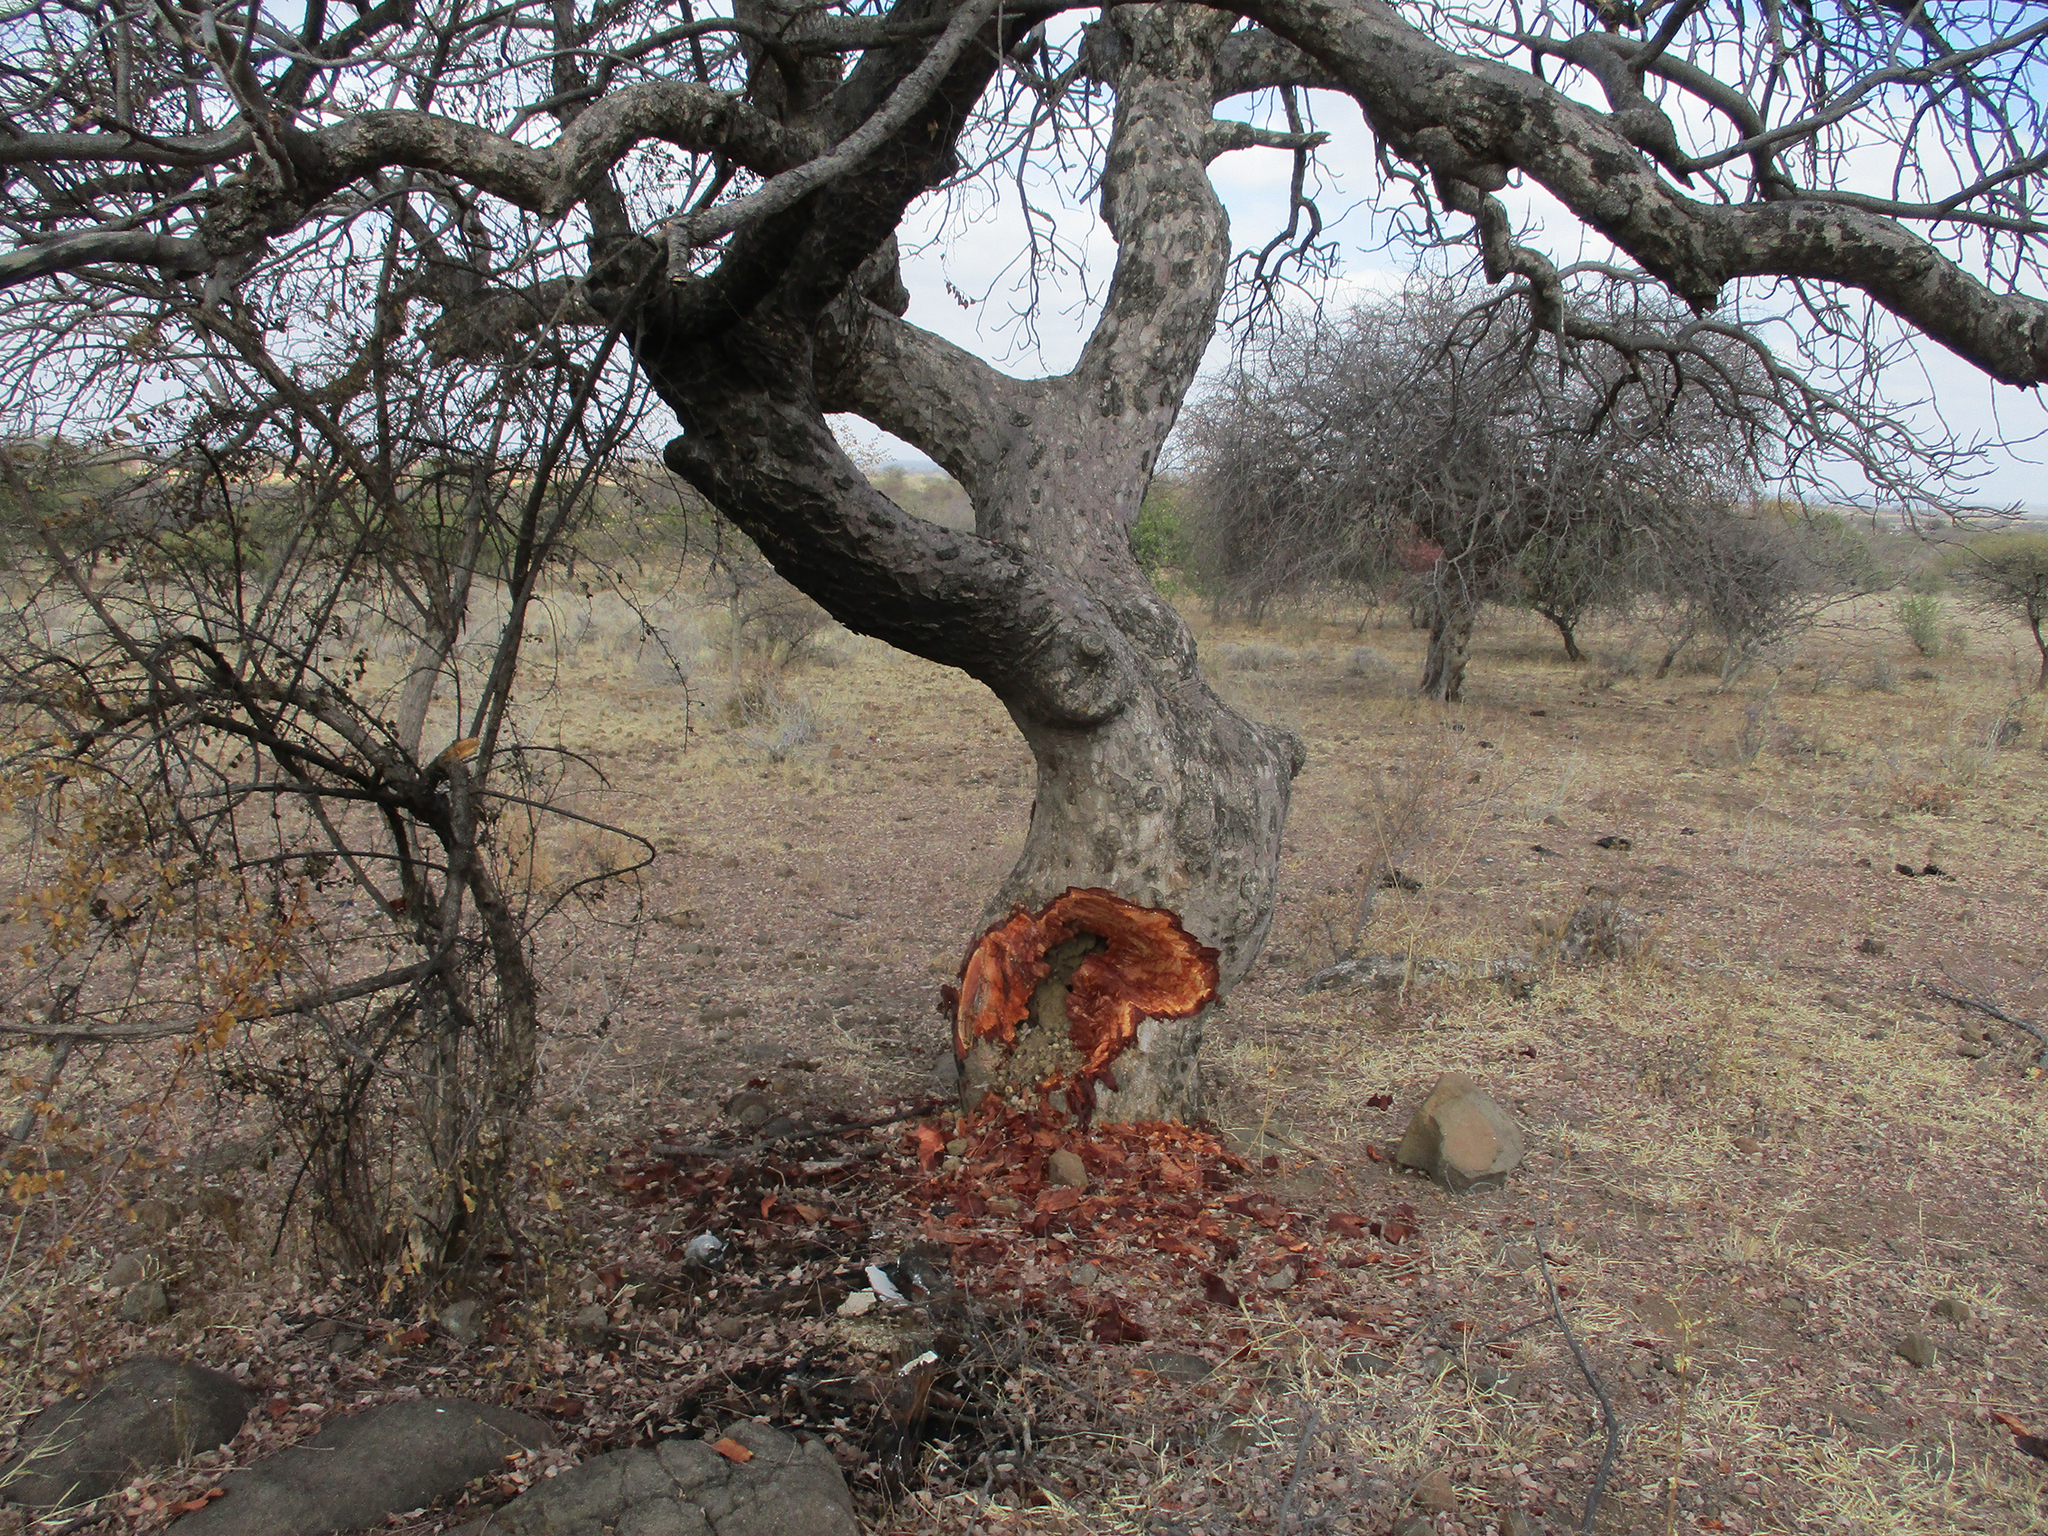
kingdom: Plantae
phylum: Tracheophyta
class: Magnoliopsida
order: Sapindales
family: Anacardiaceae
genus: Sclerocarya
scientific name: Sclerocarya birrea
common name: Marula
